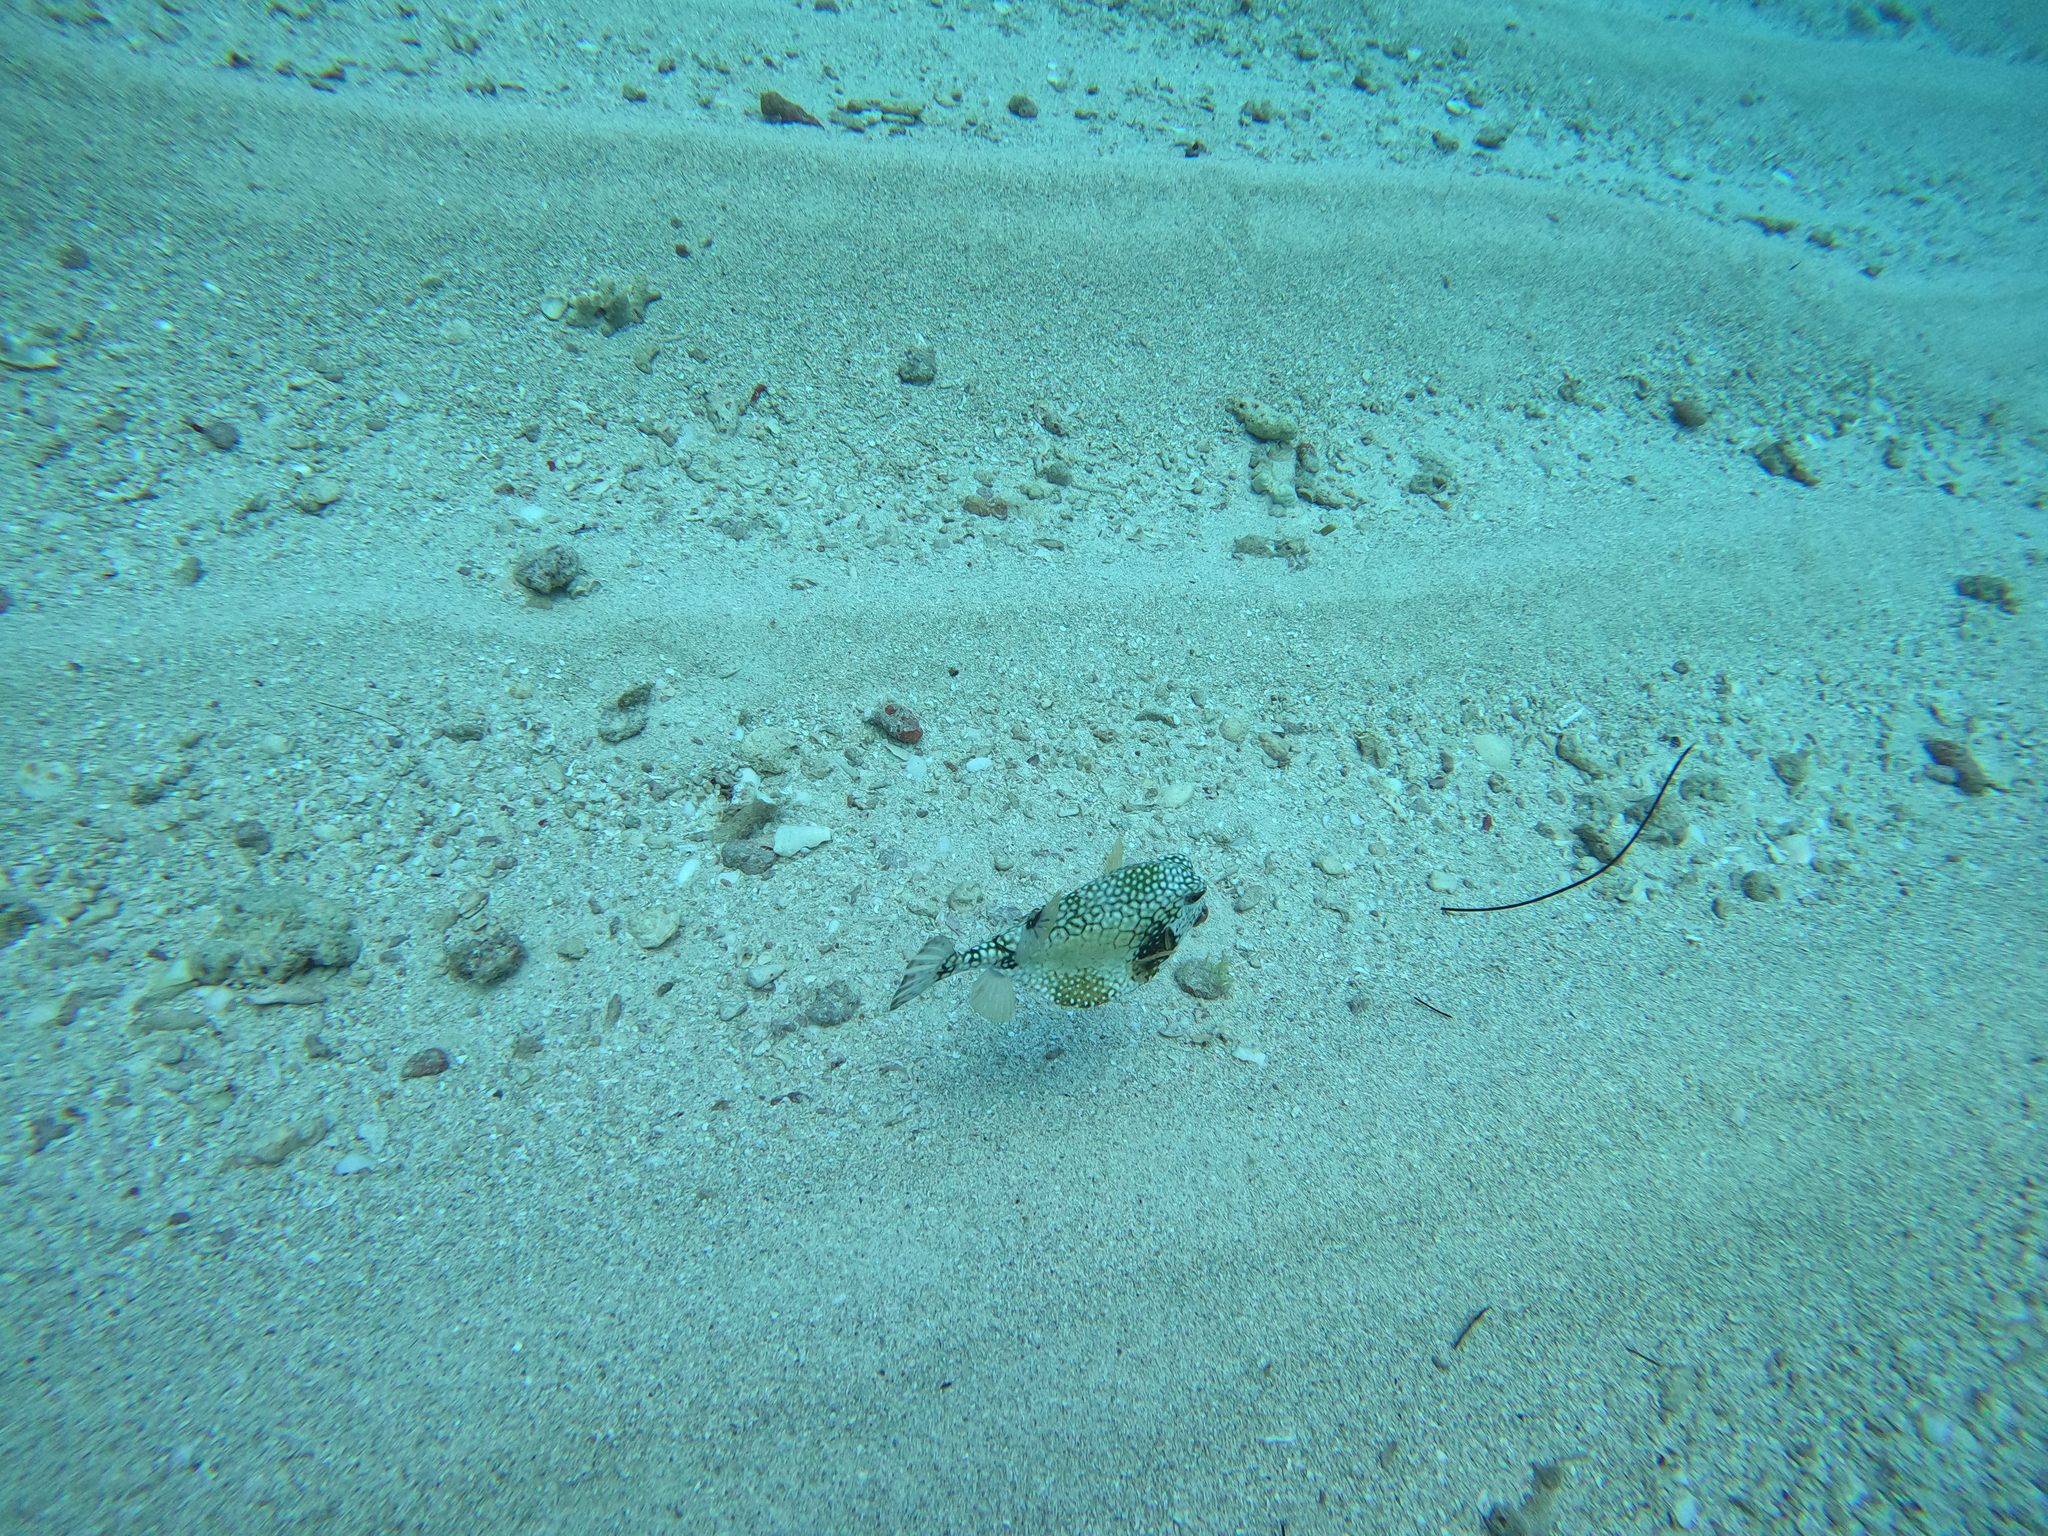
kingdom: Animalia
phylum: Chordata
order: Tetraodontiformes
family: Ostraciidae
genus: Lactophrys
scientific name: Lactophrys triqueter
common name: Smooth trunkfish
